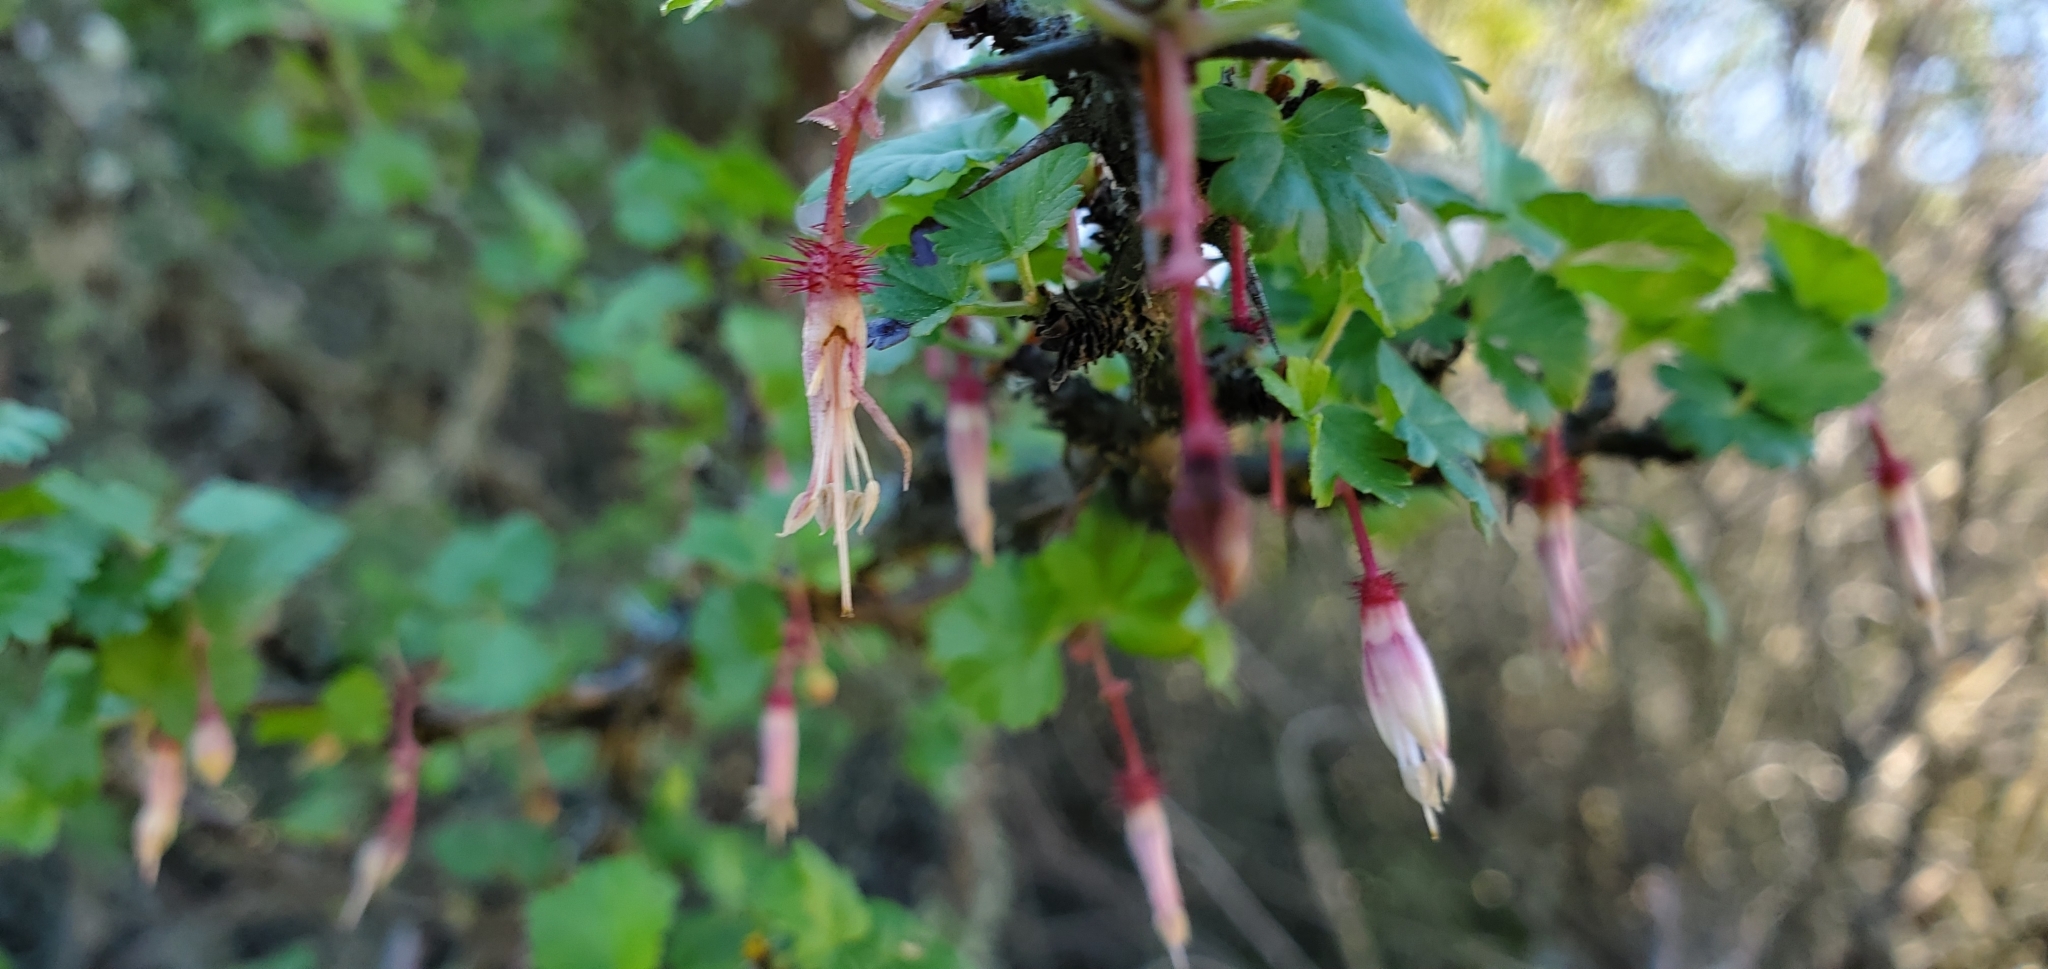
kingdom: Plantae
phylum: Tracheophyta
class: Magnoliopsida
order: Saxifragales
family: Grossulariaceae
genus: Ribes
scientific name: Ribes californicum
